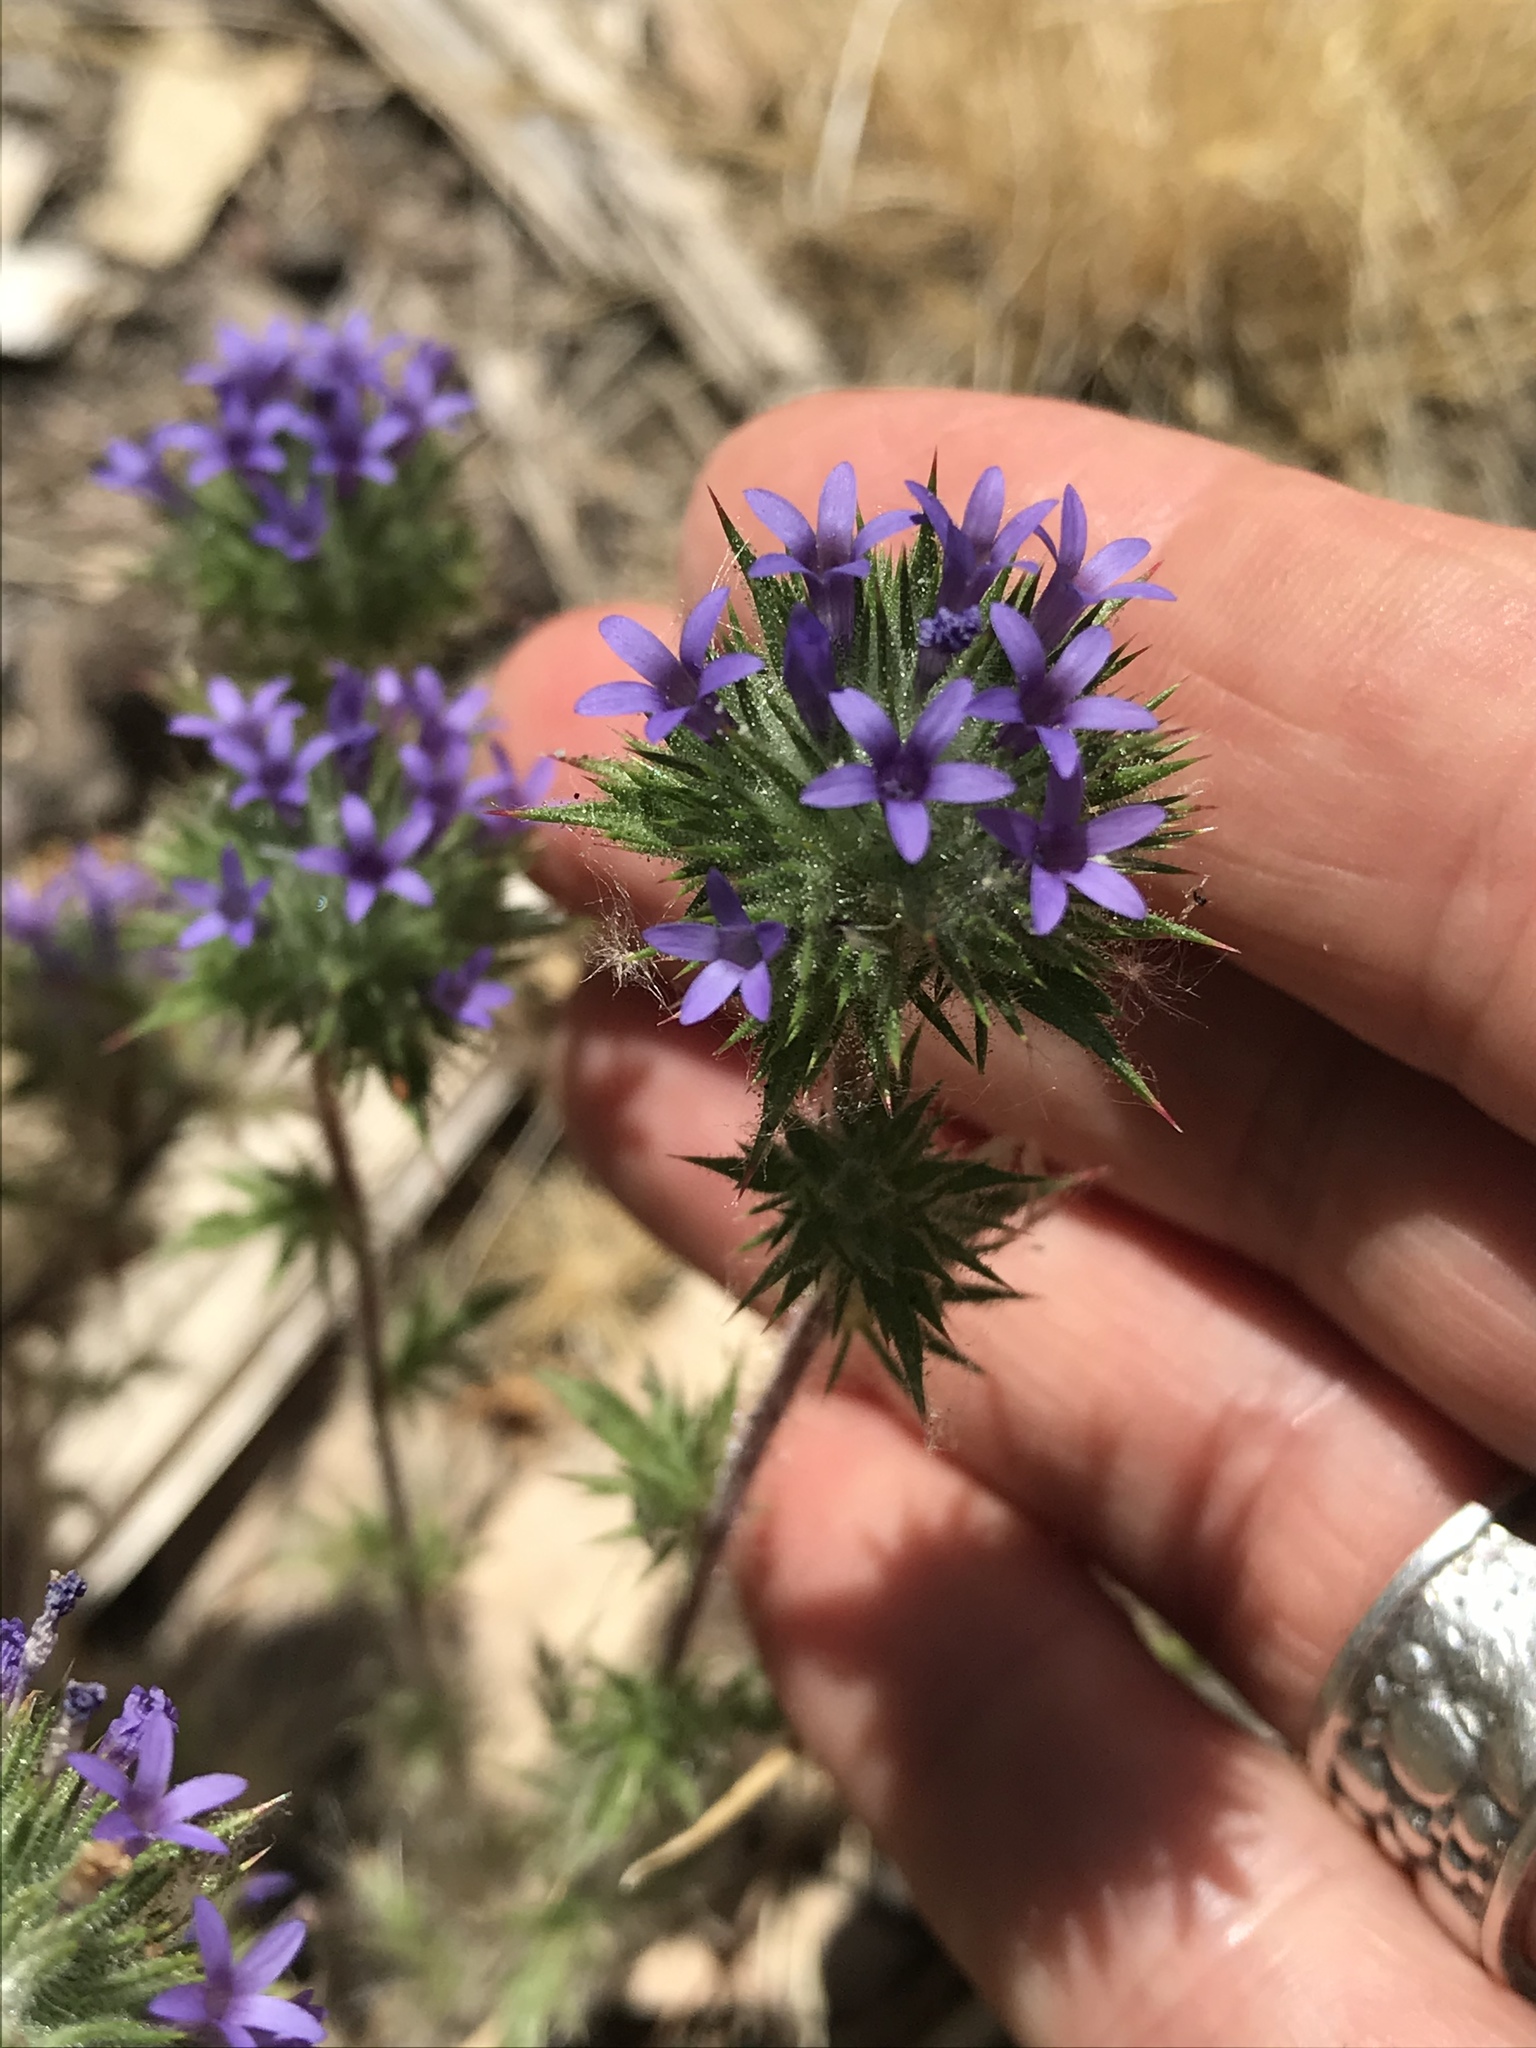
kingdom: Plantae
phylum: Tracheophyta
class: Magnoliopsida
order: Ericales
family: Polemoniaceae
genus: Navarretia
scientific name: Navarretia squarrosa
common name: Skunkweed
